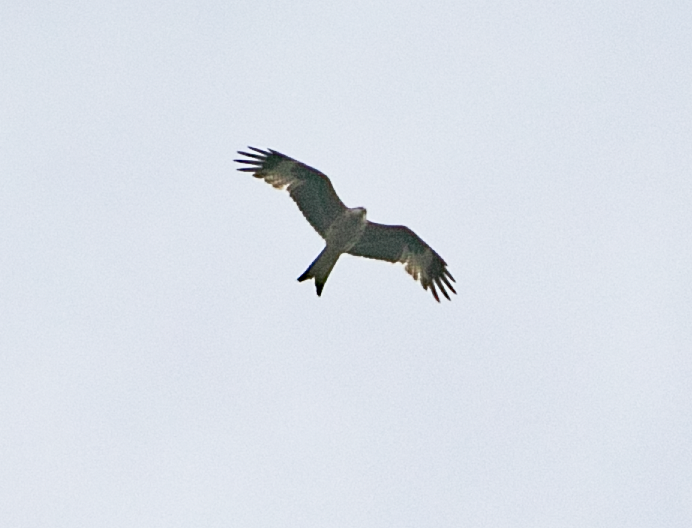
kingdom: Animalia
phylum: Chordata
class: Aves
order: Accipitriformes
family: Accipitridae
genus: Milvus
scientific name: Milvus milvus
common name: Red kite
